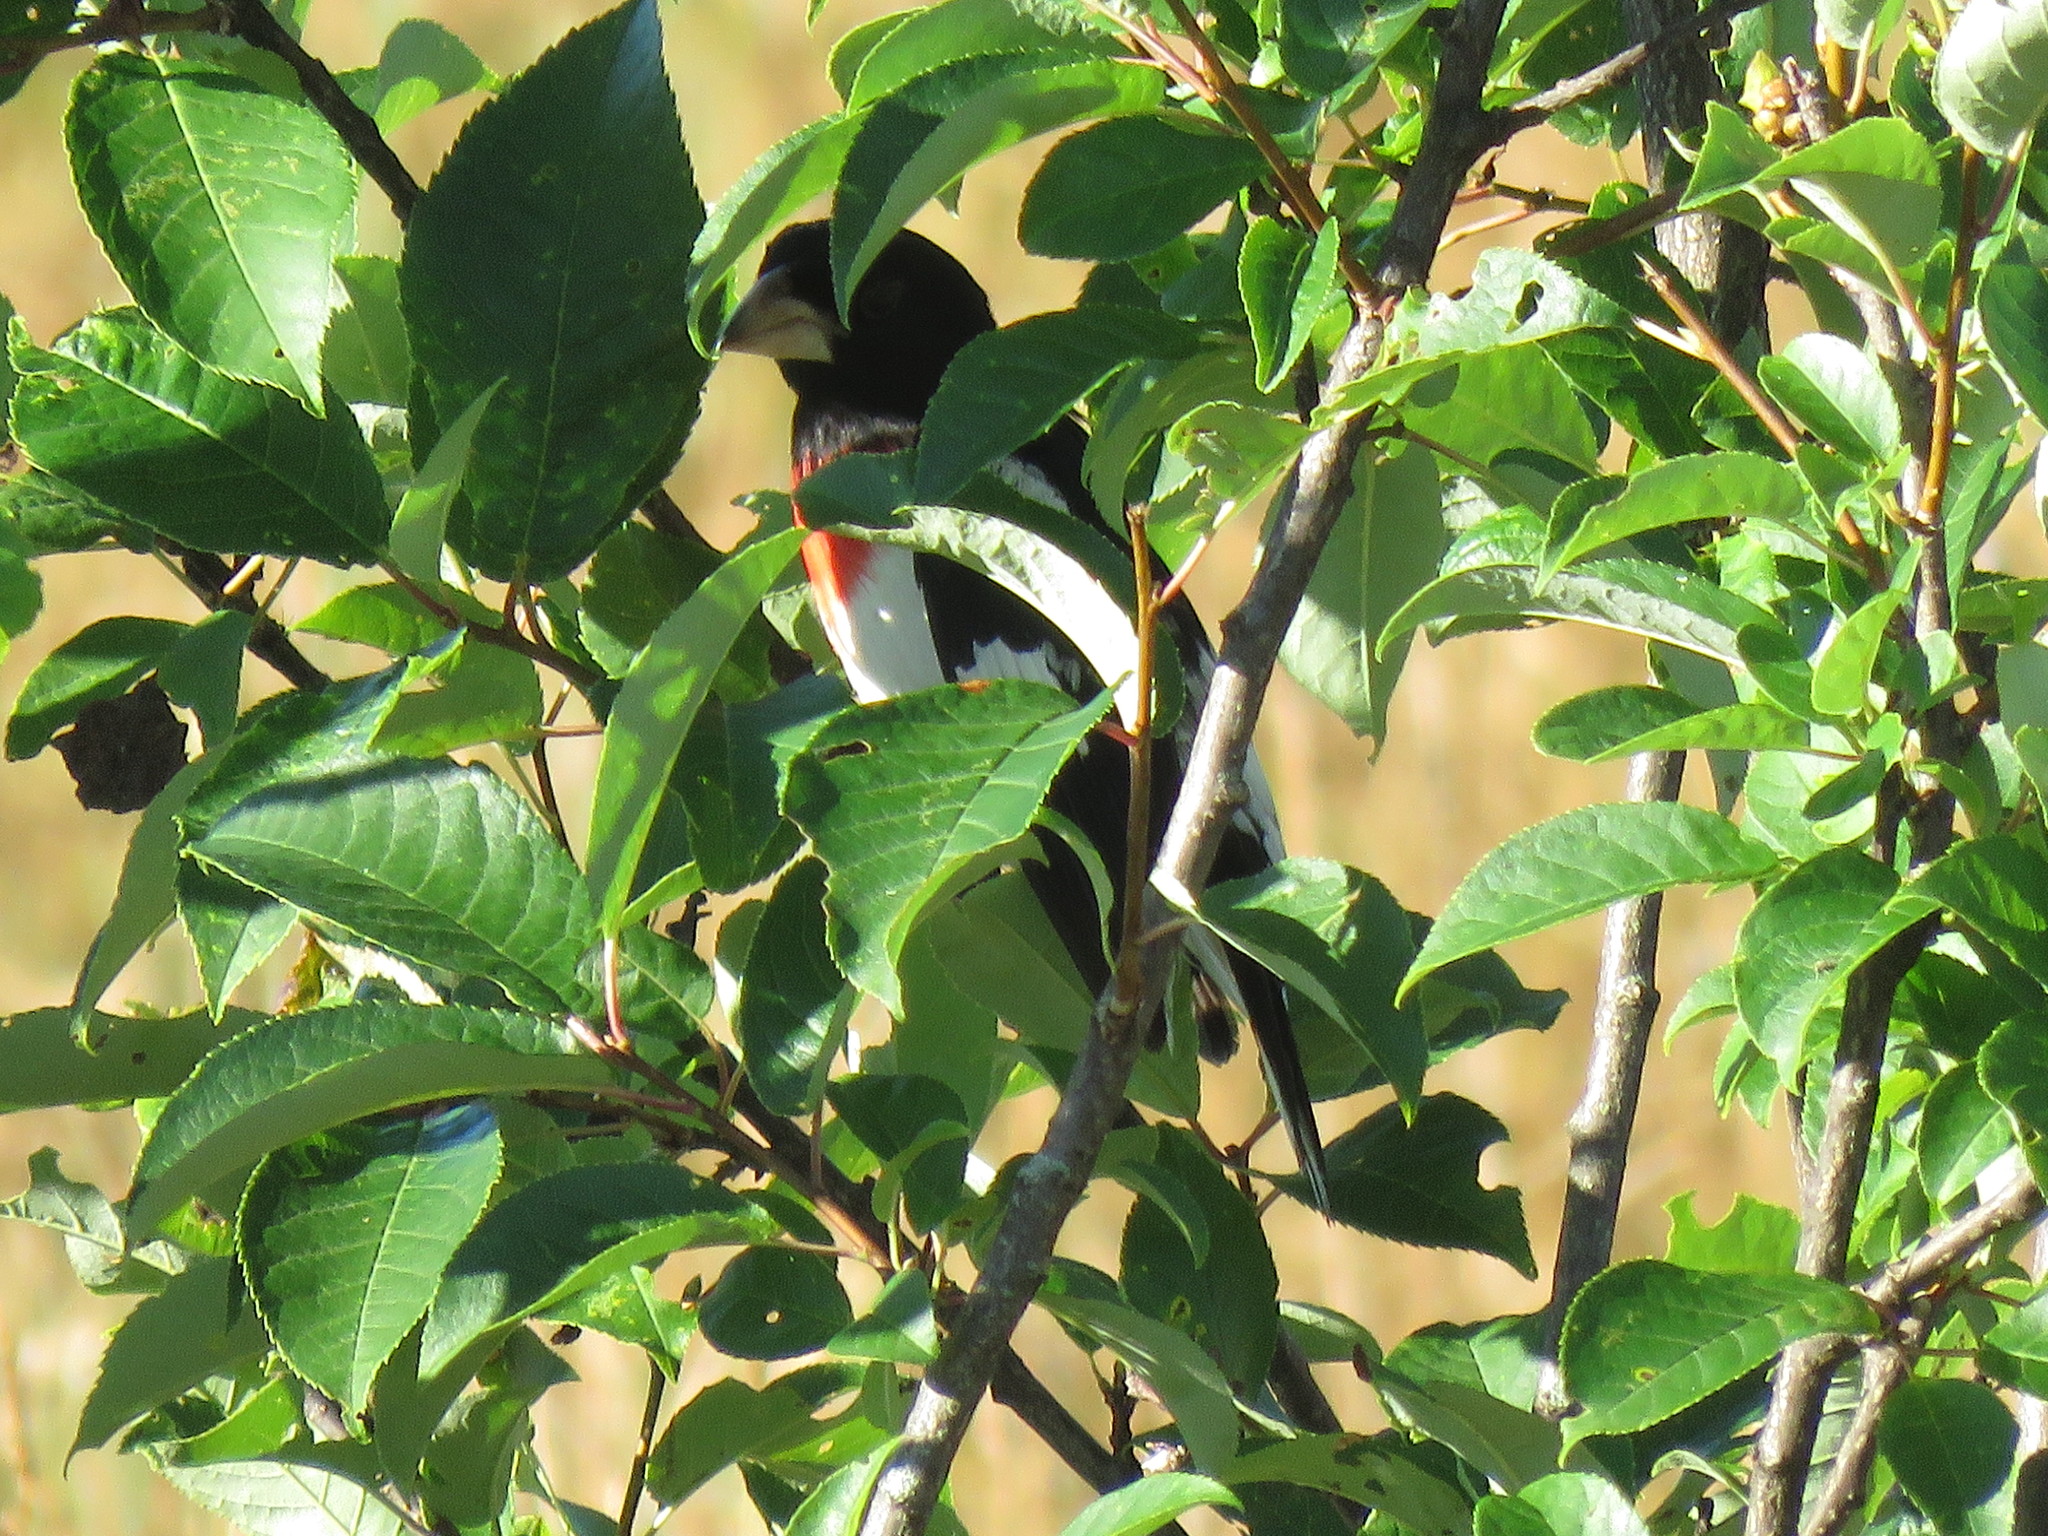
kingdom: Animalia
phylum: Chordata
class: Aves
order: Passeriformes
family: Cardinalidae
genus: Pheucticus
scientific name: Pheucticus ludovicianus
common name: Rose-breasted grosbeak
